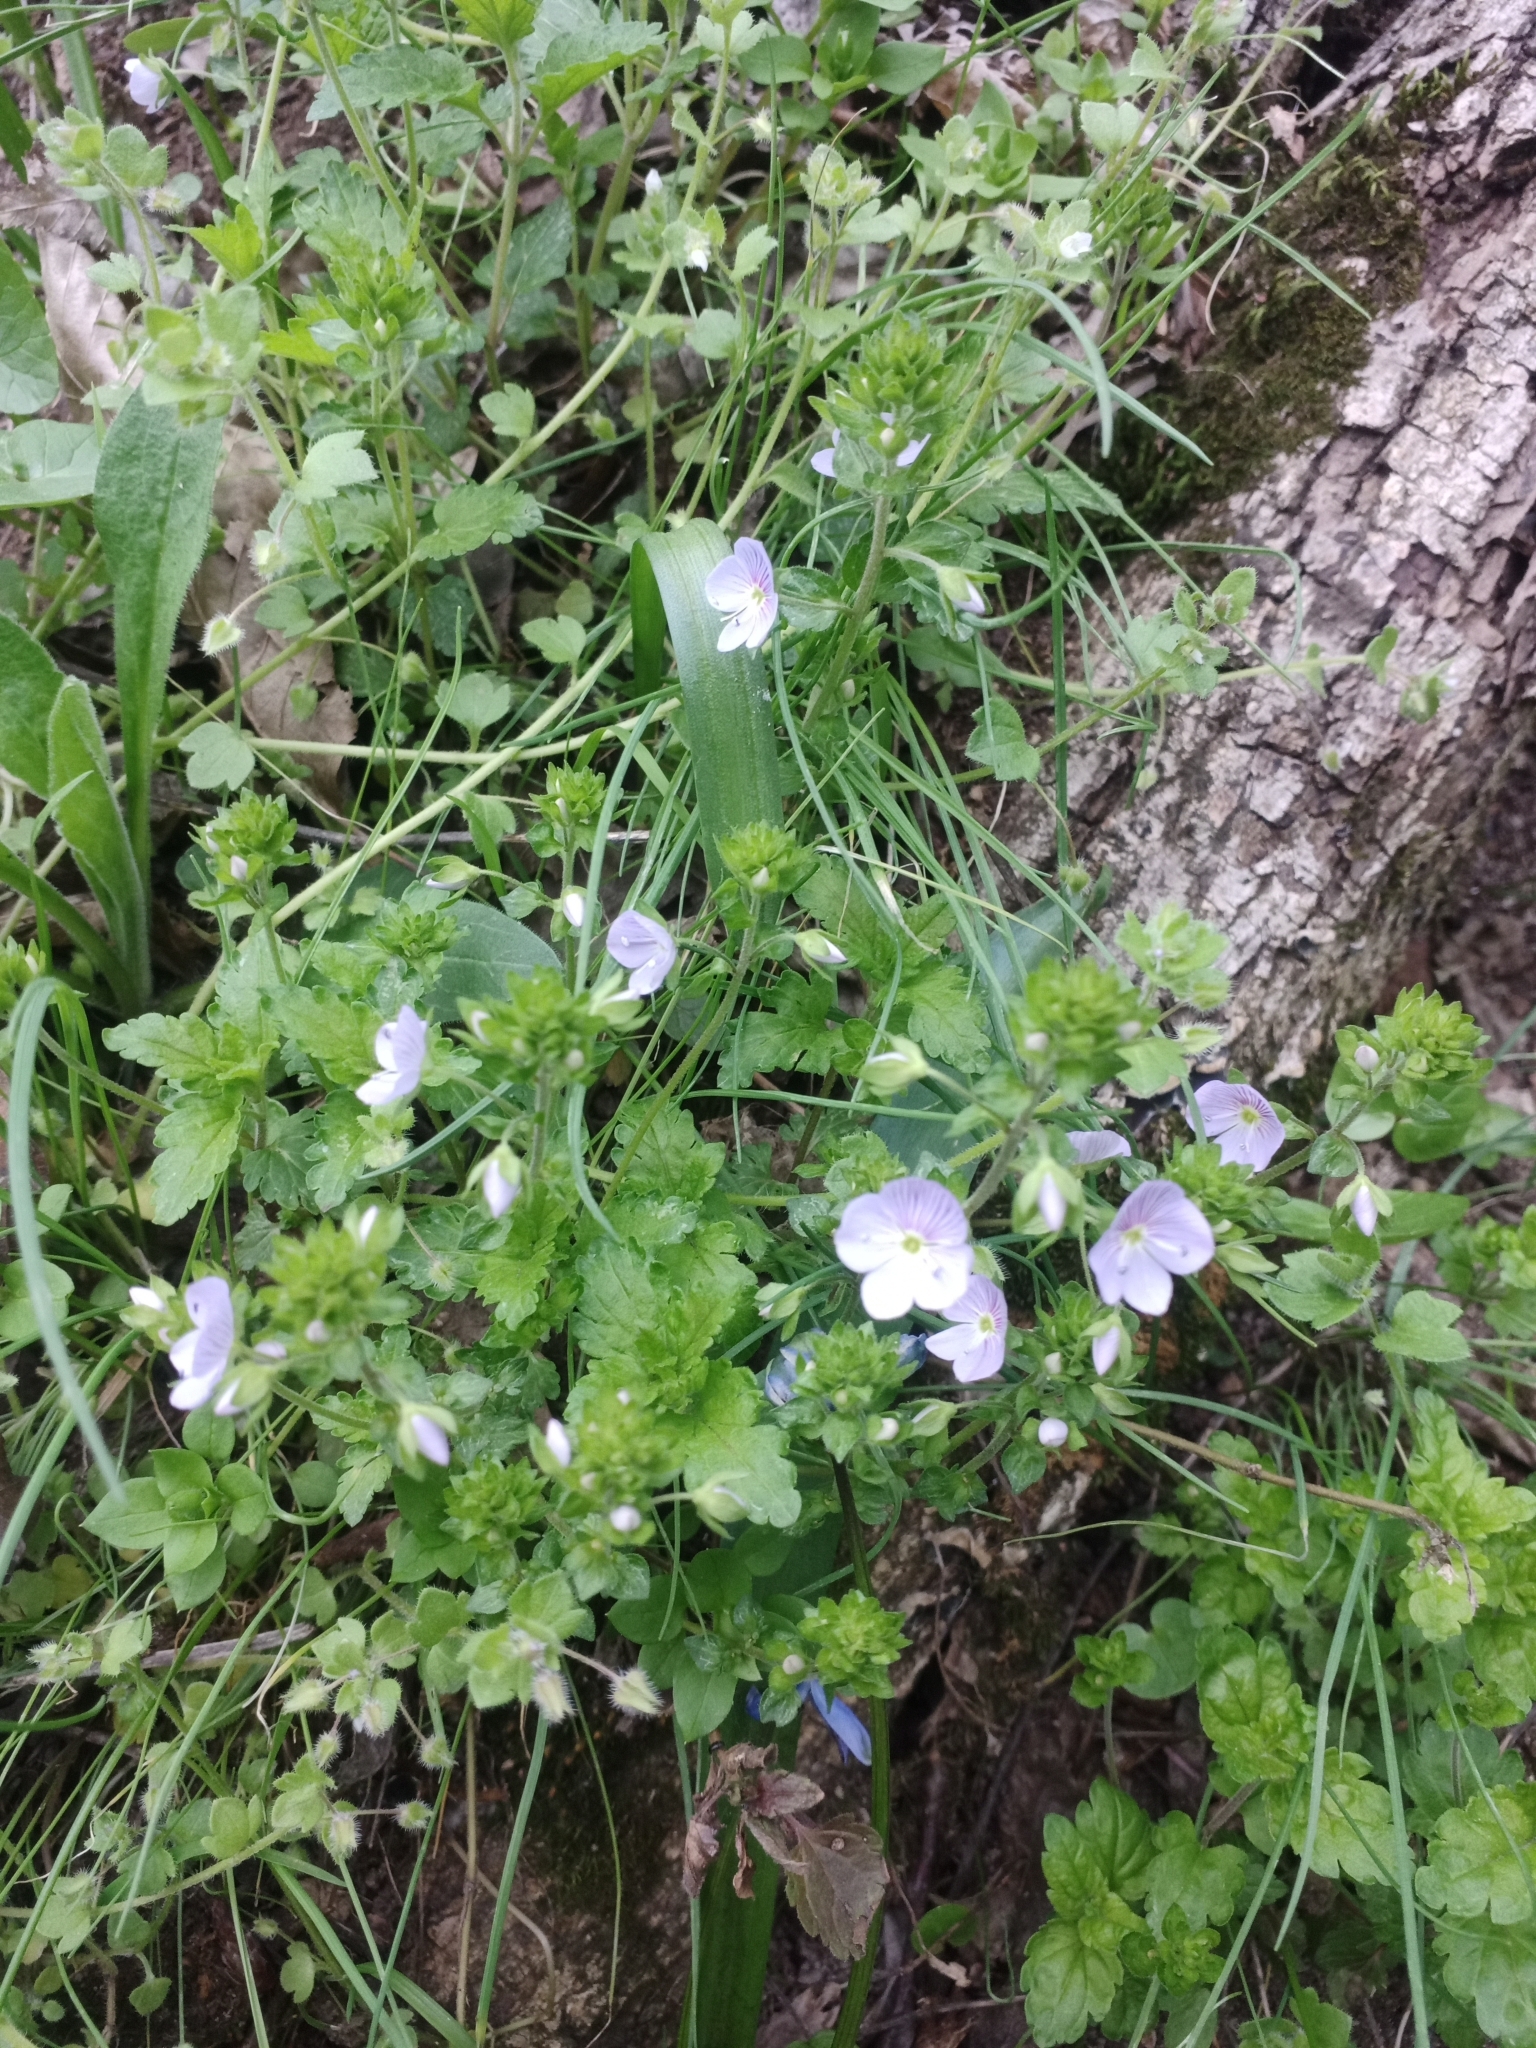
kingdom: Plantae
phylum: Tracheophyta
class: Magnoliopsida
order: Lamiales
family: Plantaginaceae
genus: Veronica
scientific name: Veronica peduncularis
